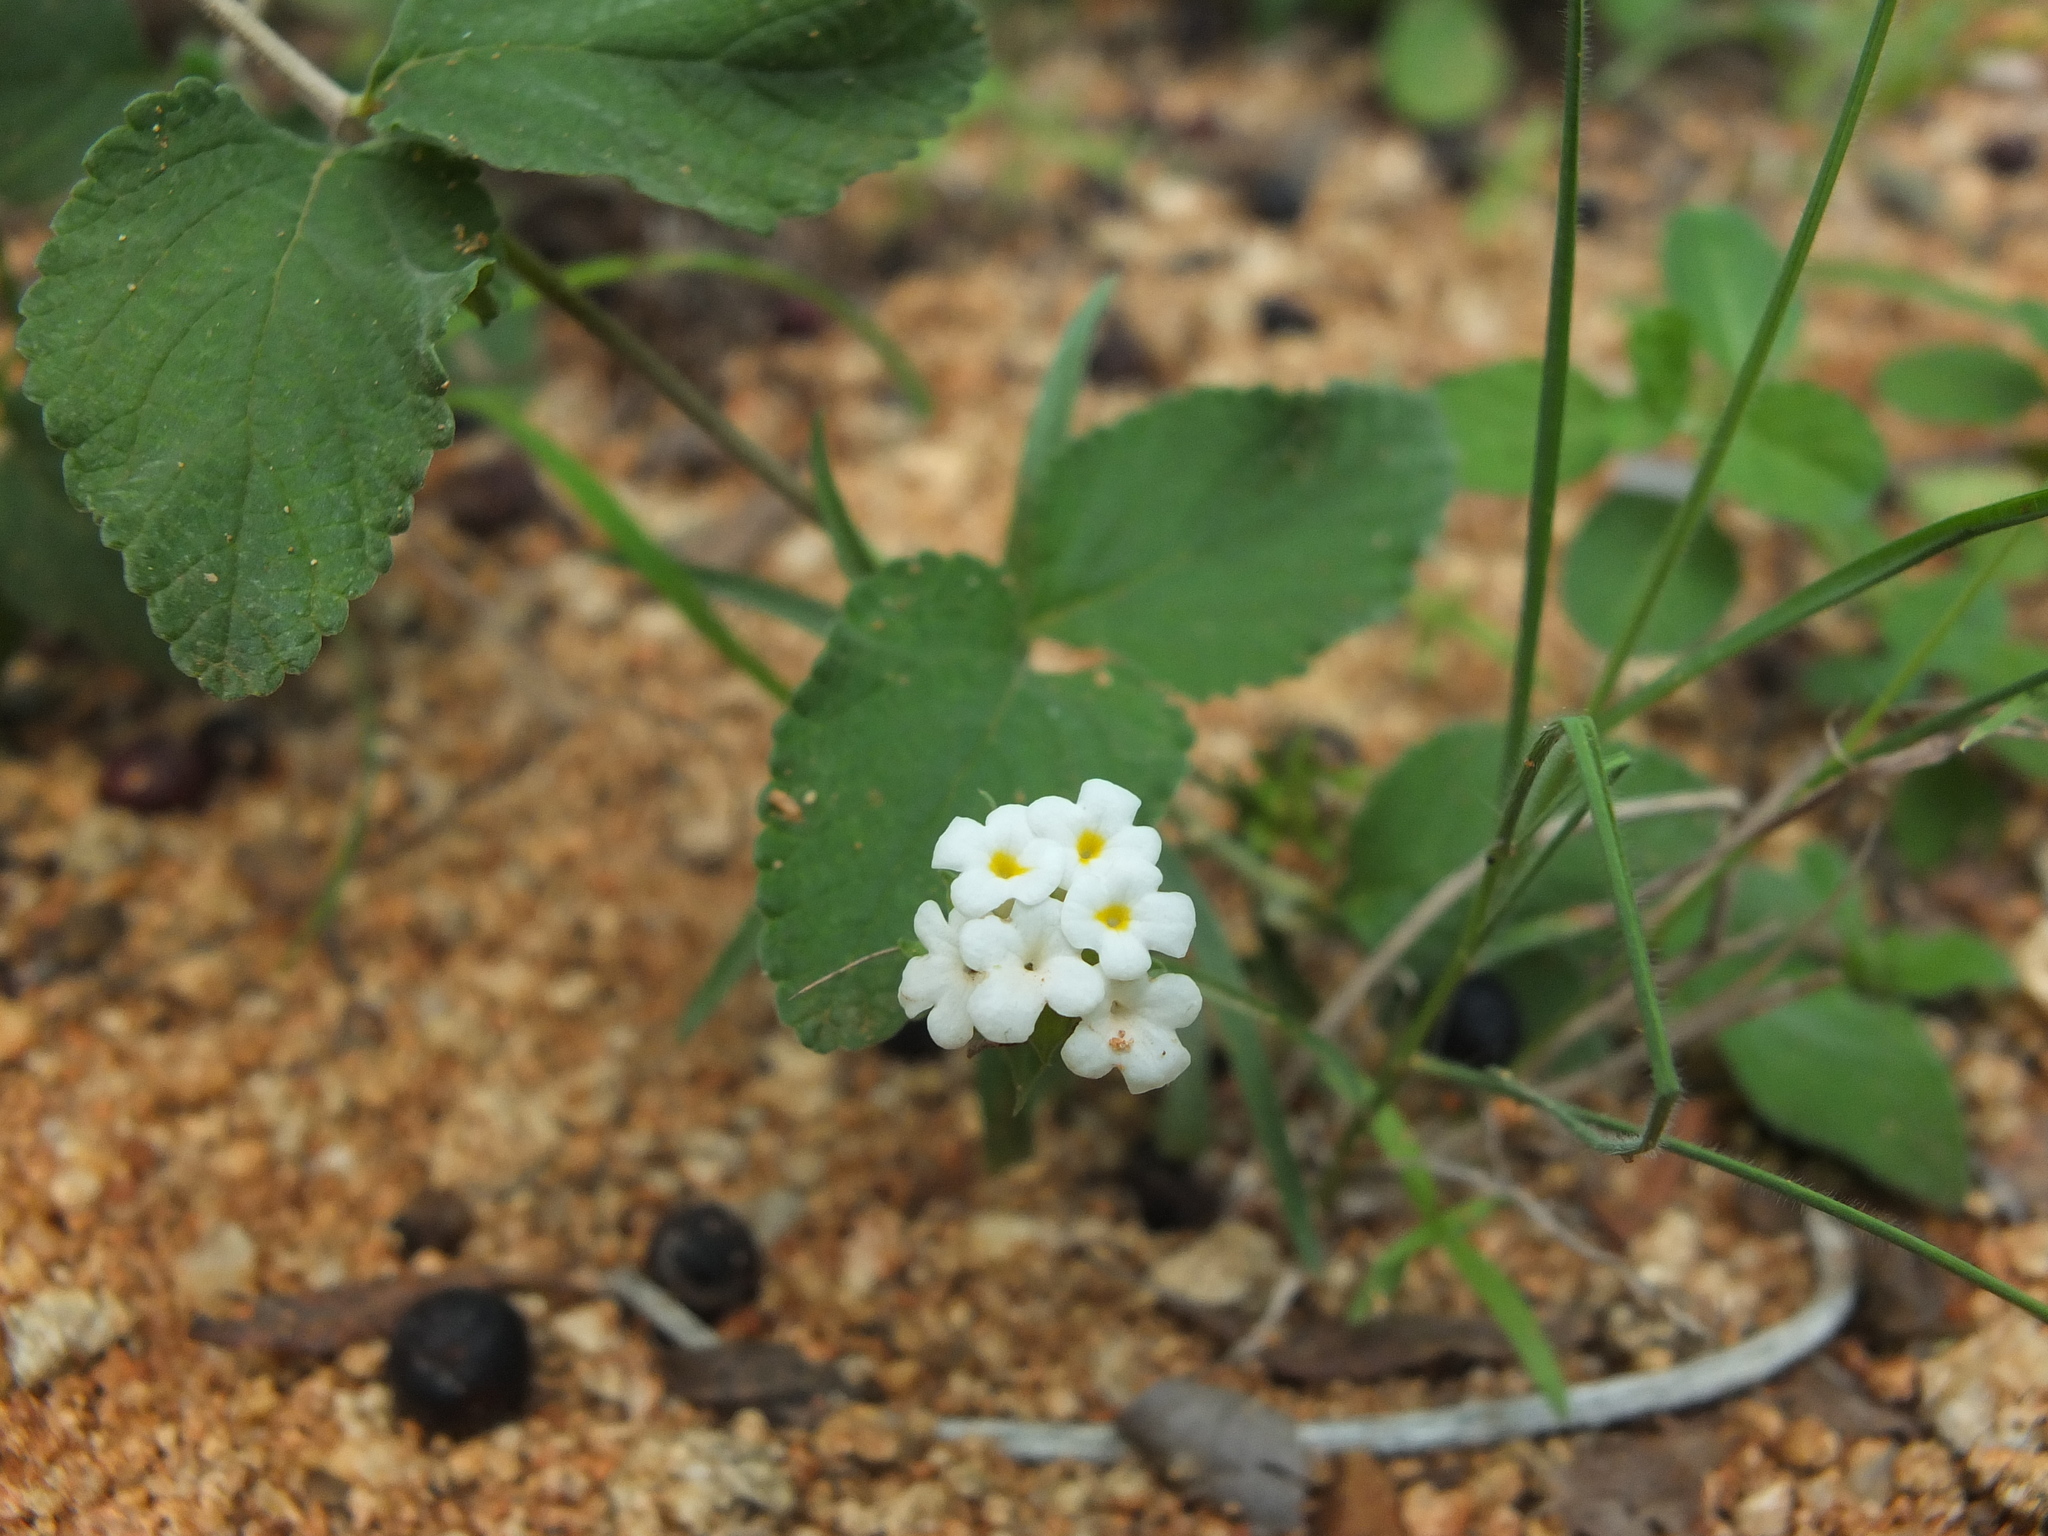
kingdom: Plantae
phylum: Tracheophyta
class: Magnoliopsida
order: Lamiales
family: Verbenaceae
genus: Lantana
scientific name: Lantana veronicifolia
